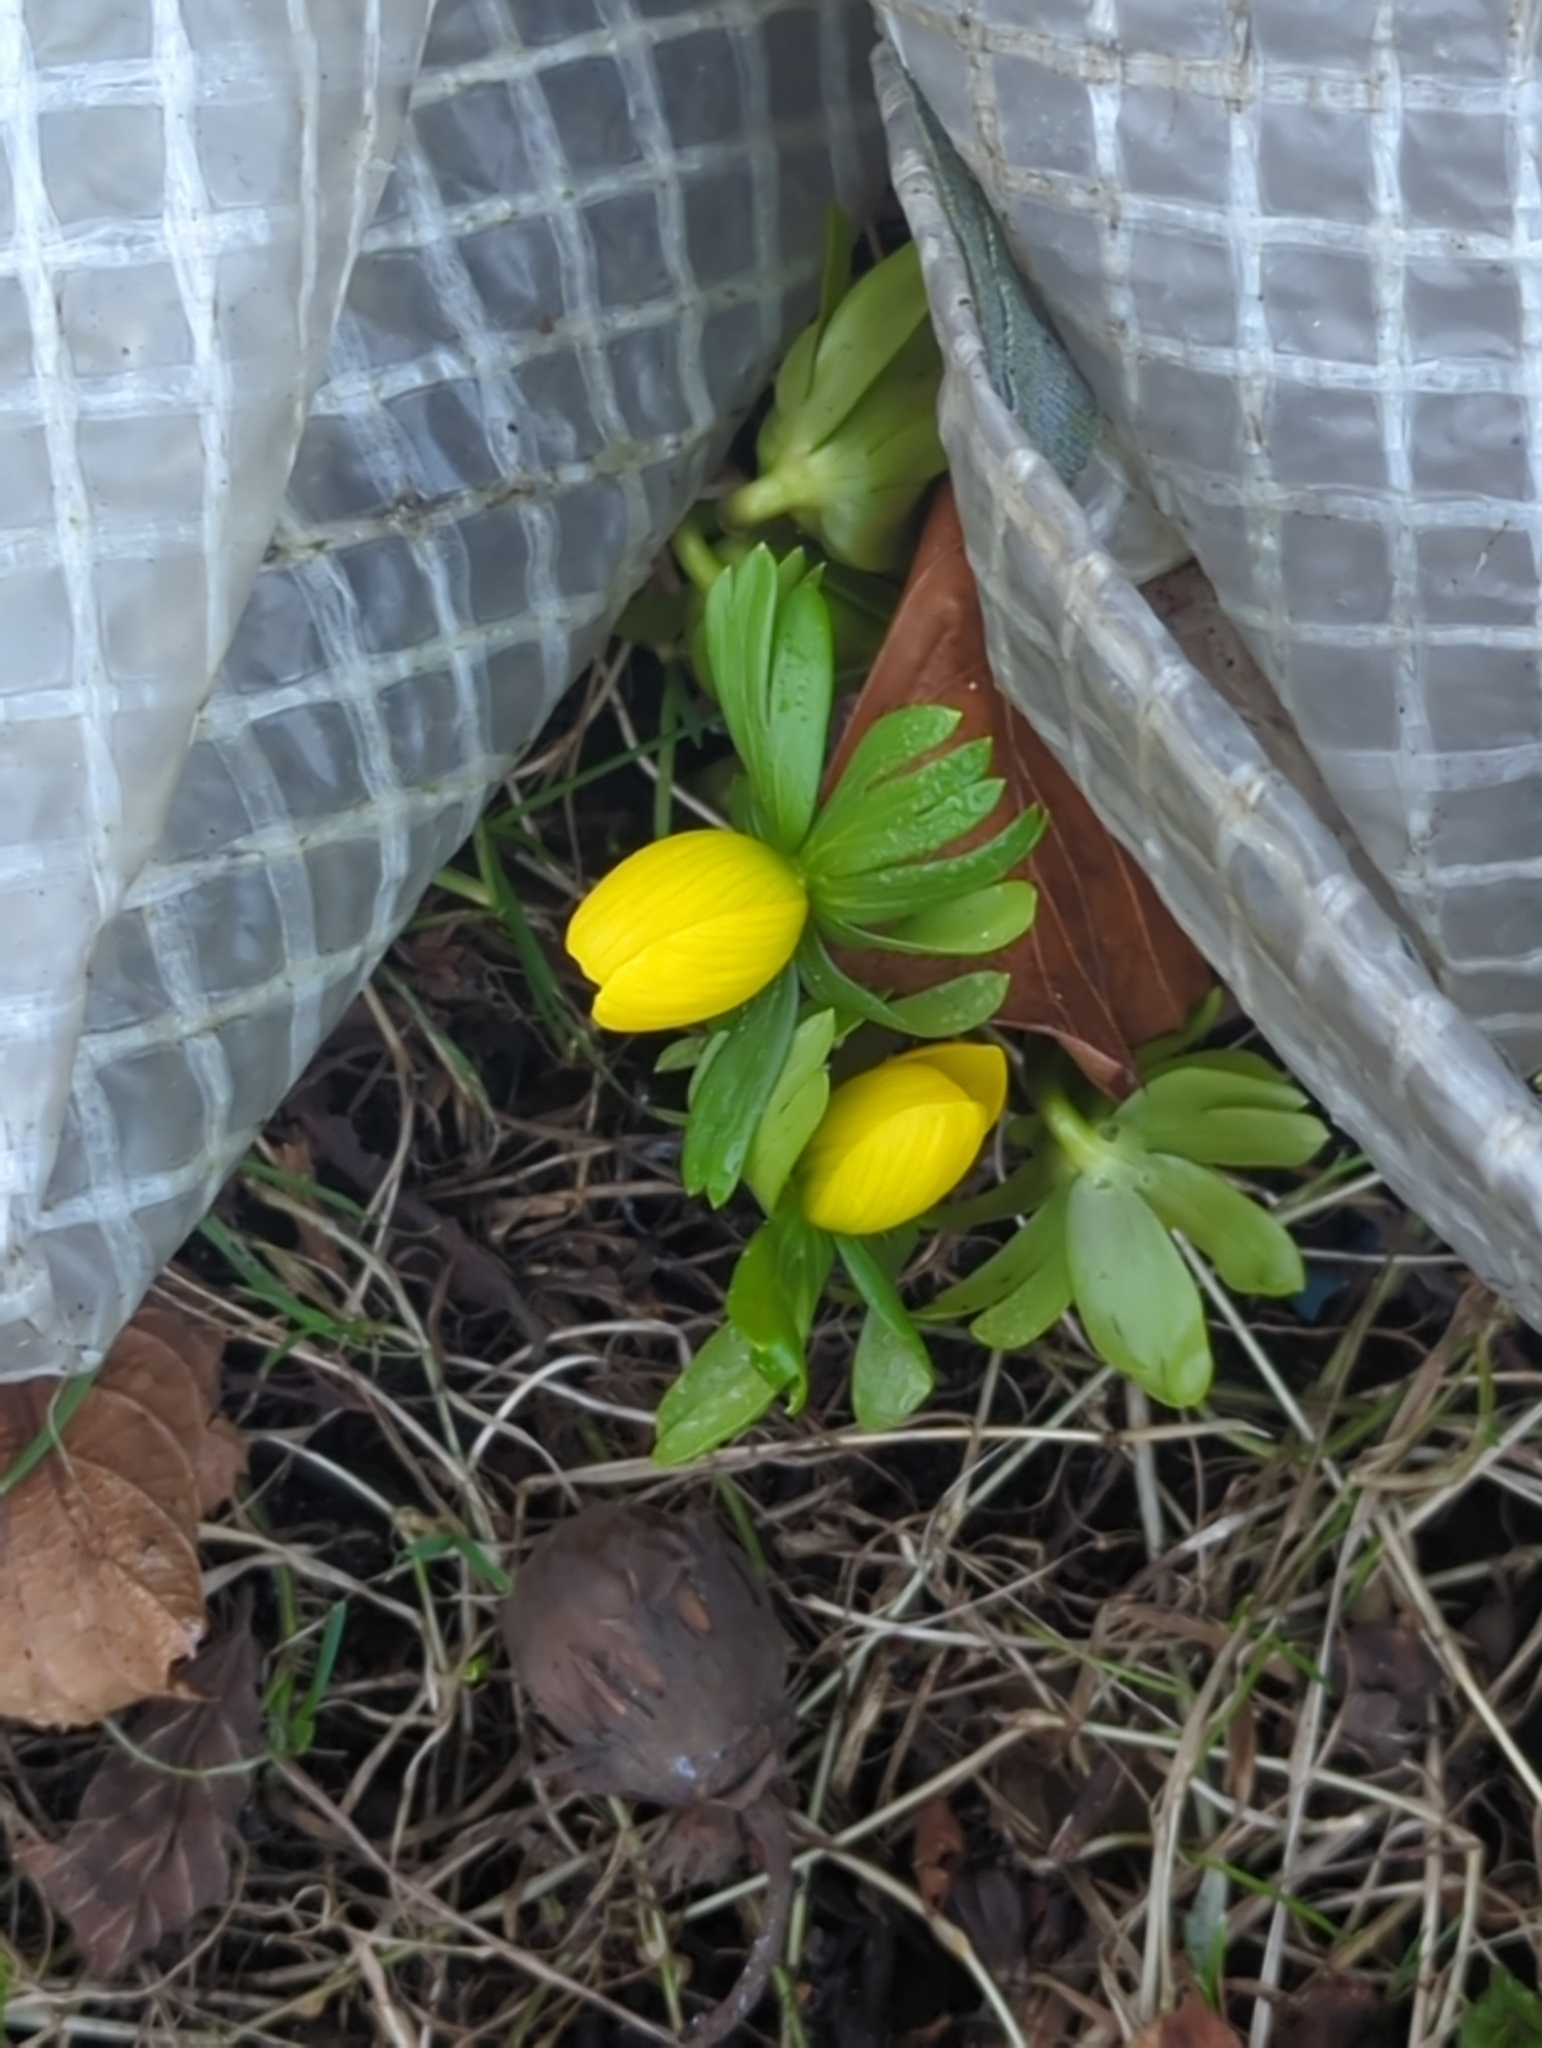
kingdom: Plantae
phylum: Tracheophyta
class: Magnoliopsida
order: Ranunculales
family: Ranunculaceae
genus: Eranthis
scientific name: Eranthis hyemalis
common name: Winter aconite
